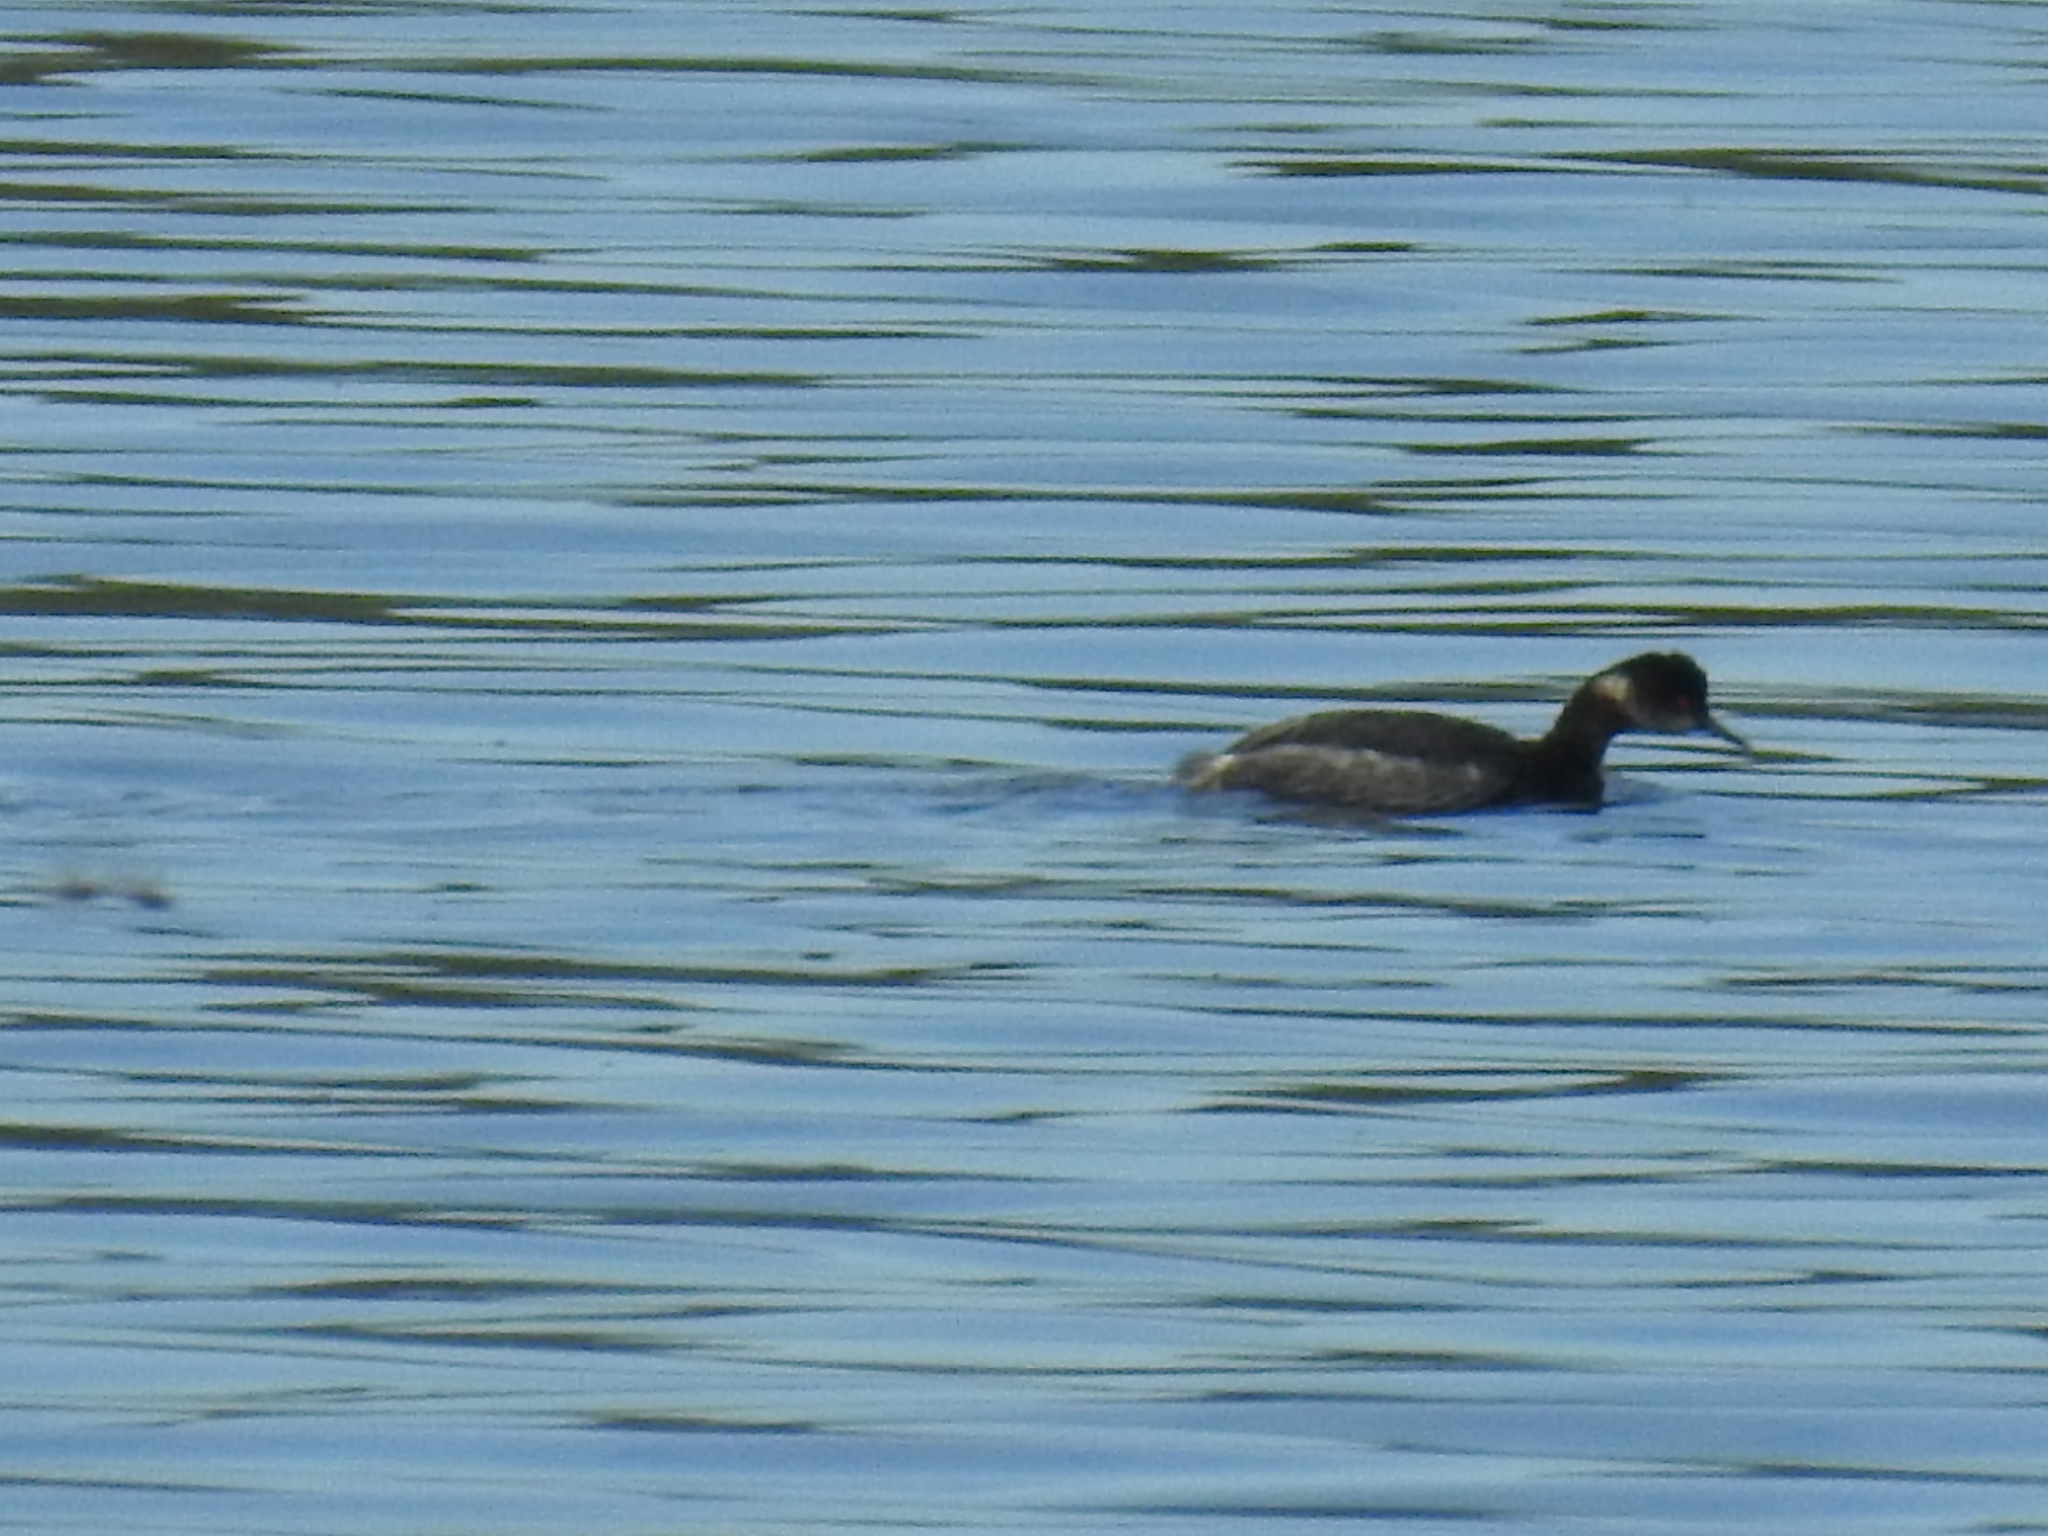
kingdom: Animalia
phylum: Chordata
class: Aves
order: Podicipediformes
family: Podicipedidae
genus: Podiceps
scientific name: Podiceps nigricollis
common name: Black-necked grebe
